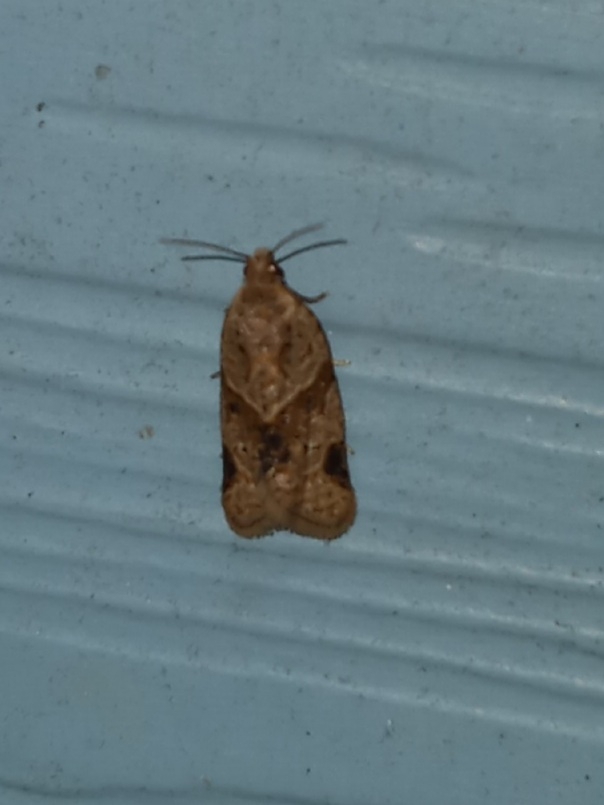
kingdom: Animalia
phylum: Arthropoda
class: Insecta
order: Lepidoptera
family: Tortricidae
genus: Clepsis
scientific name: Clepsis peritana
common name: Garden tortrix
